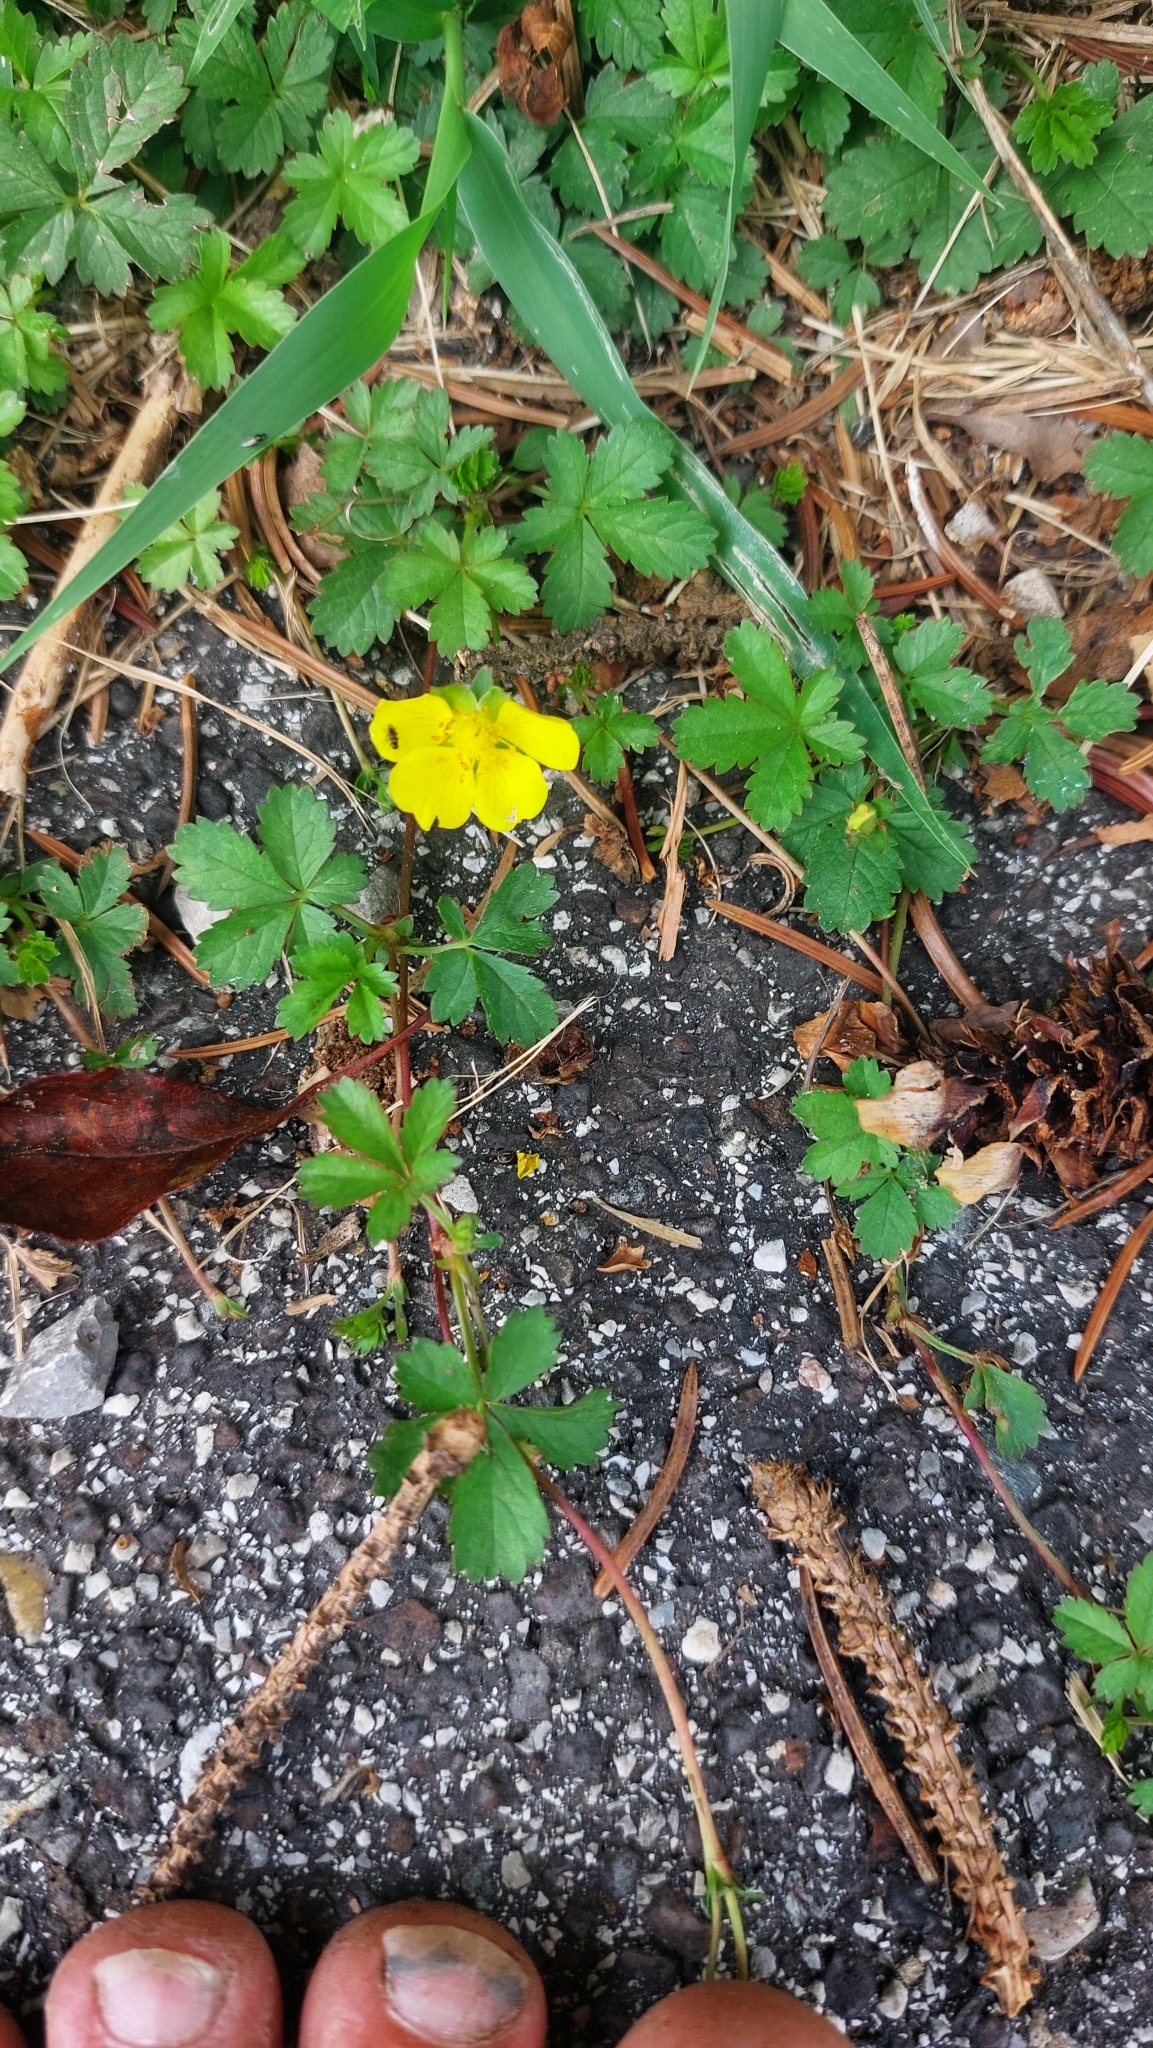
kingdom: Plantae
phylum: Tracheophyta
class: Magnoliopsida
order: Rosales
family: Rosaceae
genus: Potentilla
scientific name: Potentilla reptans
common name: Creeping cinquefoil
